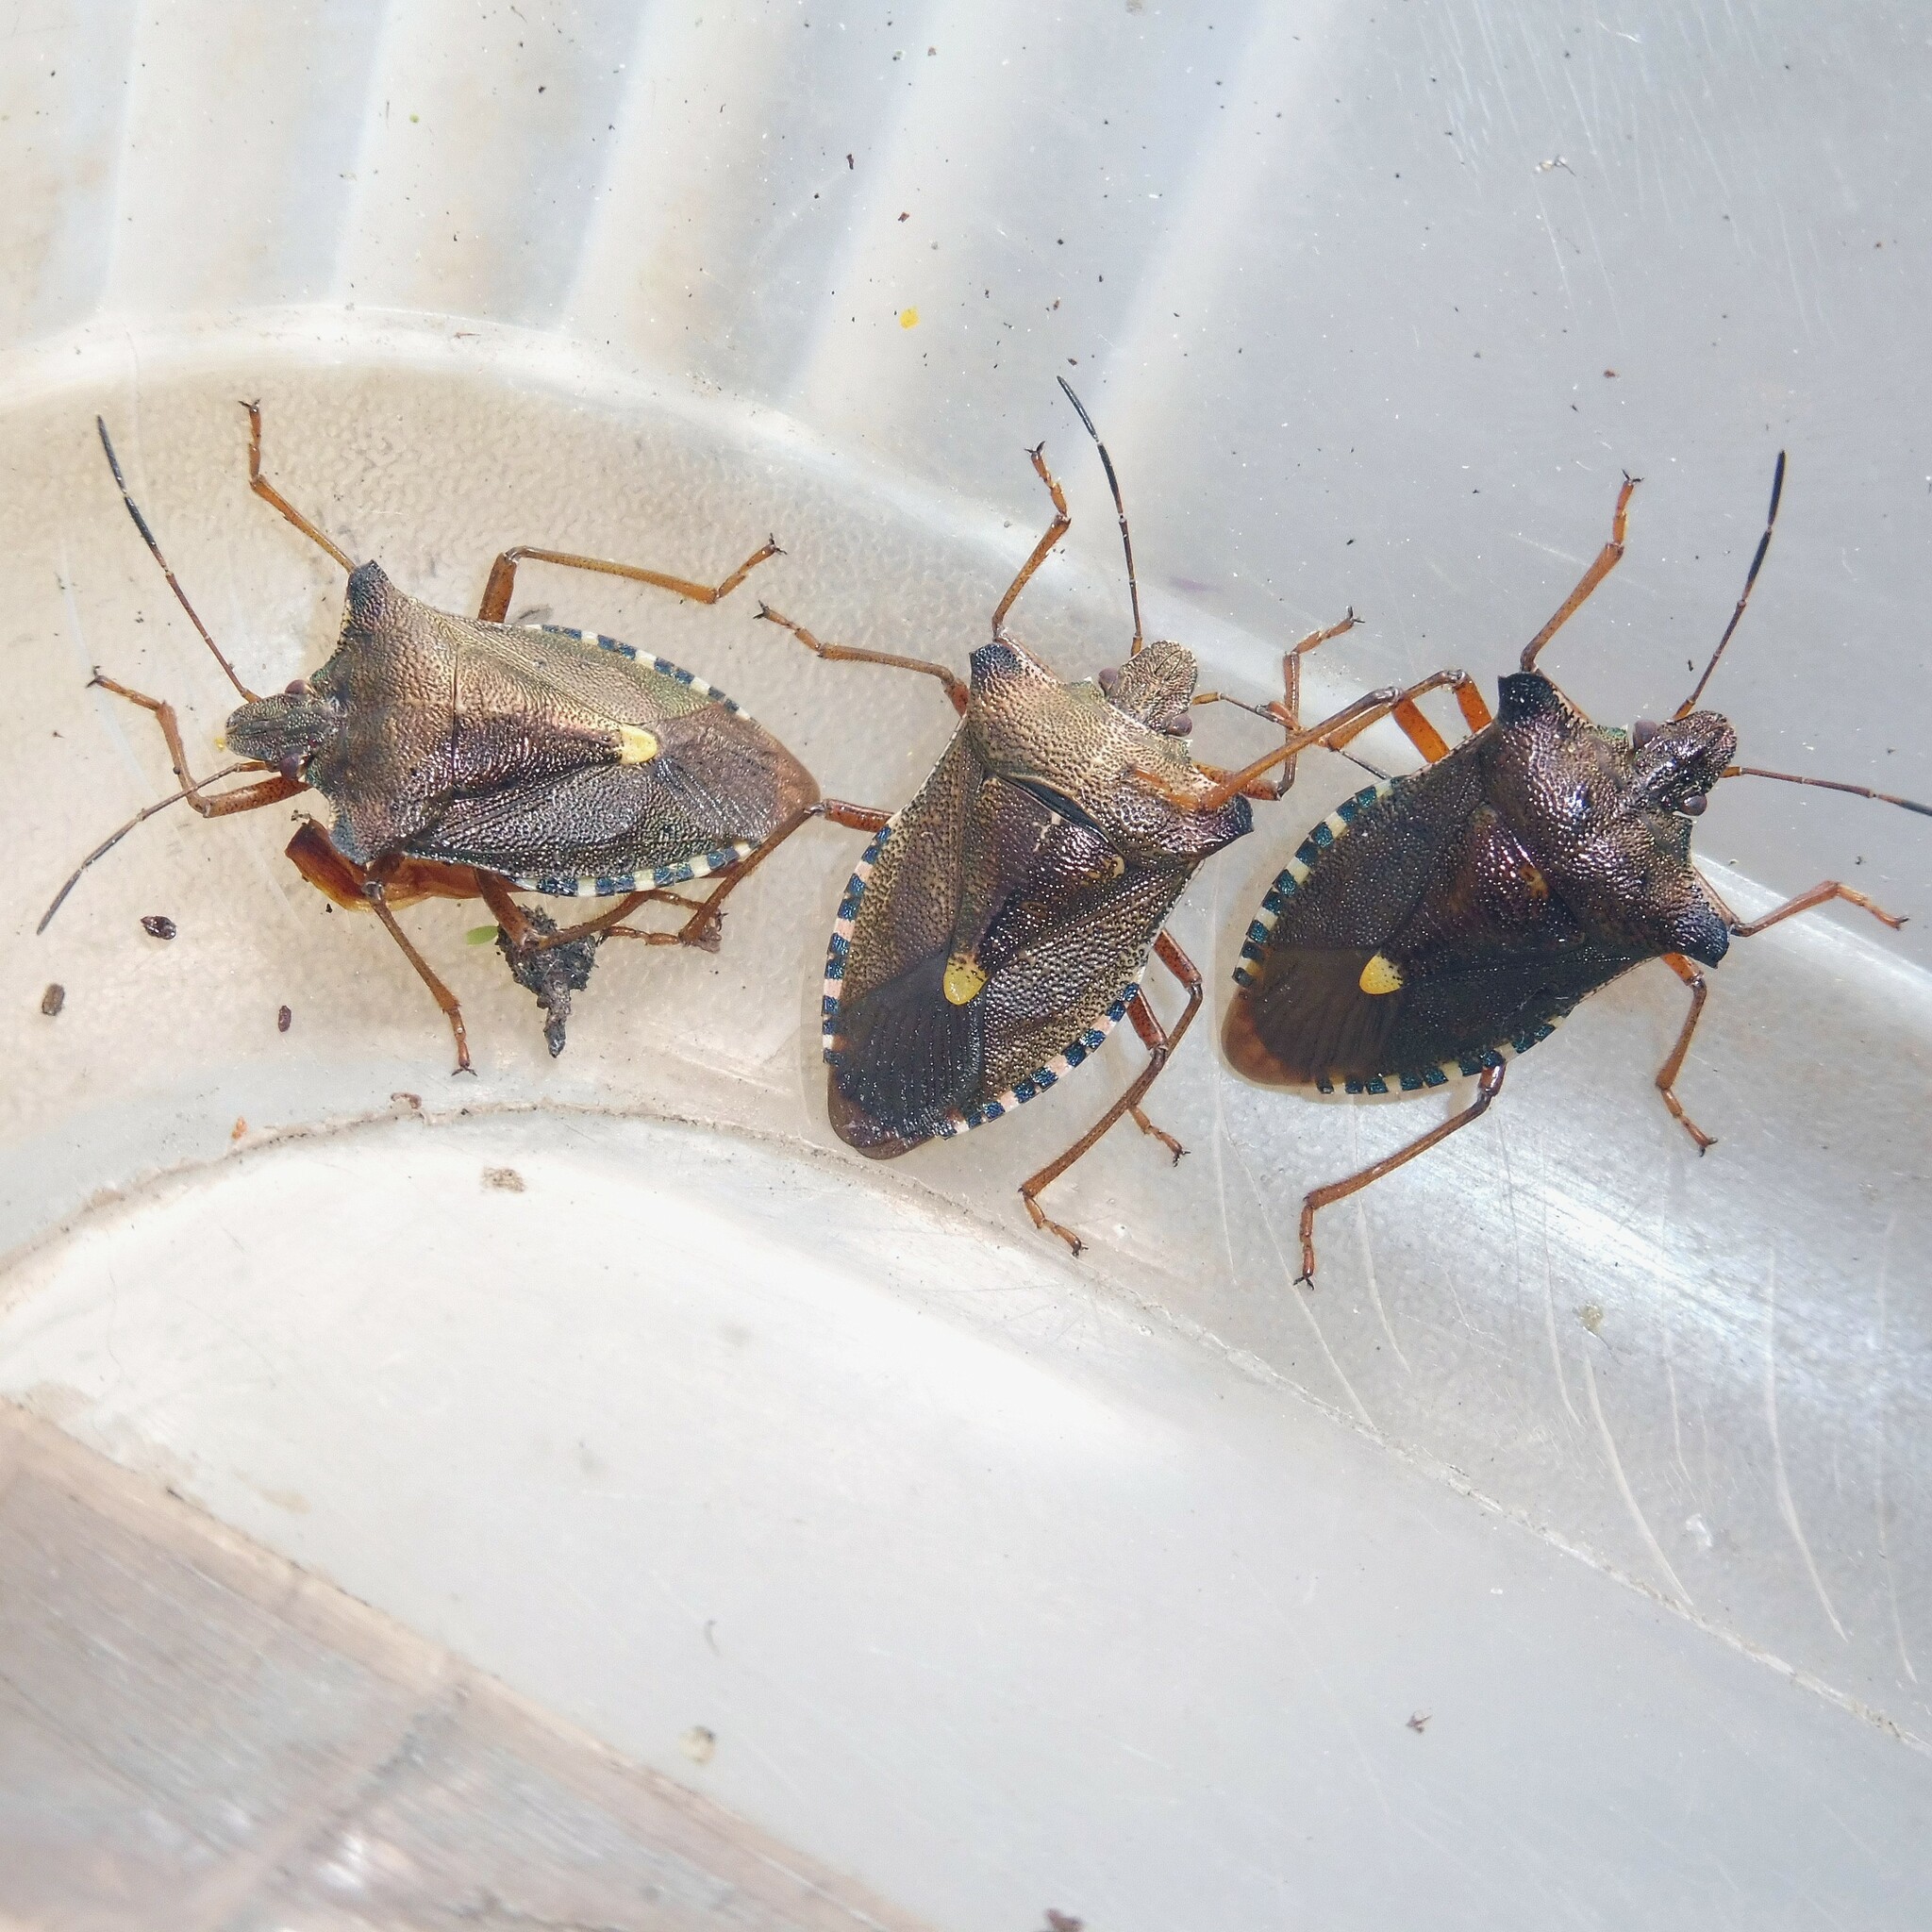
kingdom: Animalia
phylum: Arthropoda
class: Insecta
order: Hemiptera
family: Pentatomidae
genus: Pentatoma
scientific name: Pentatoma rufipes
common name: Forest bug
